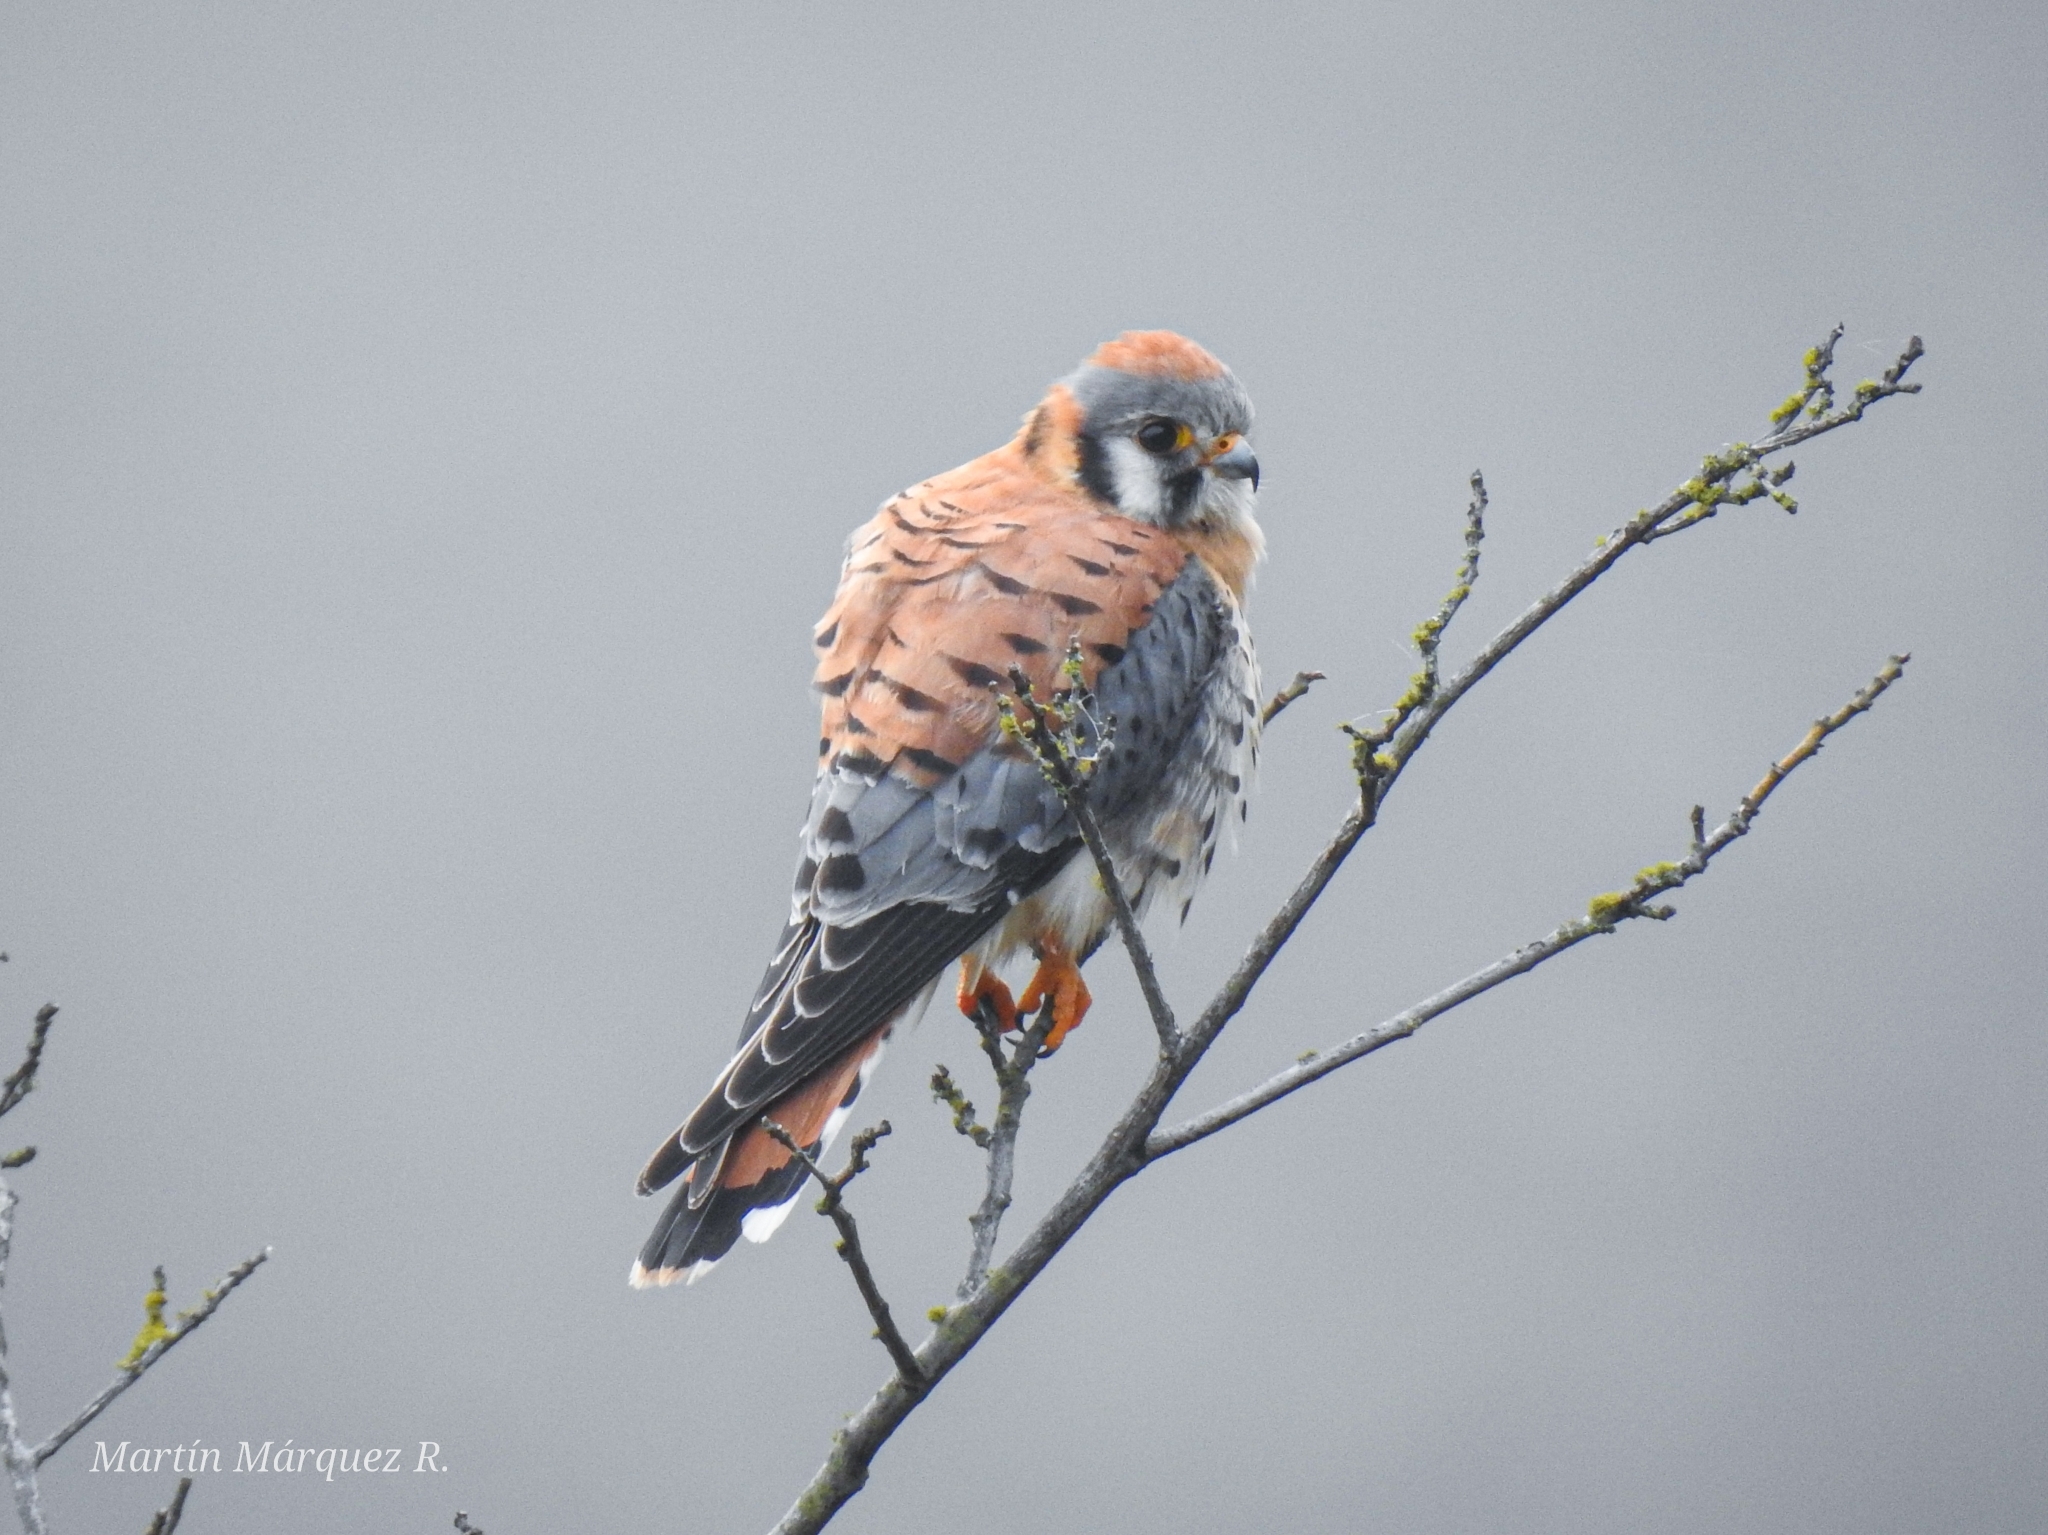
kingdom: Animalia
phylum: Chordata
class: Aves
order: Falconiformes
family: Falconidae
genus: Falco
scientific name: Falco sparverius
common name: American kestrel
